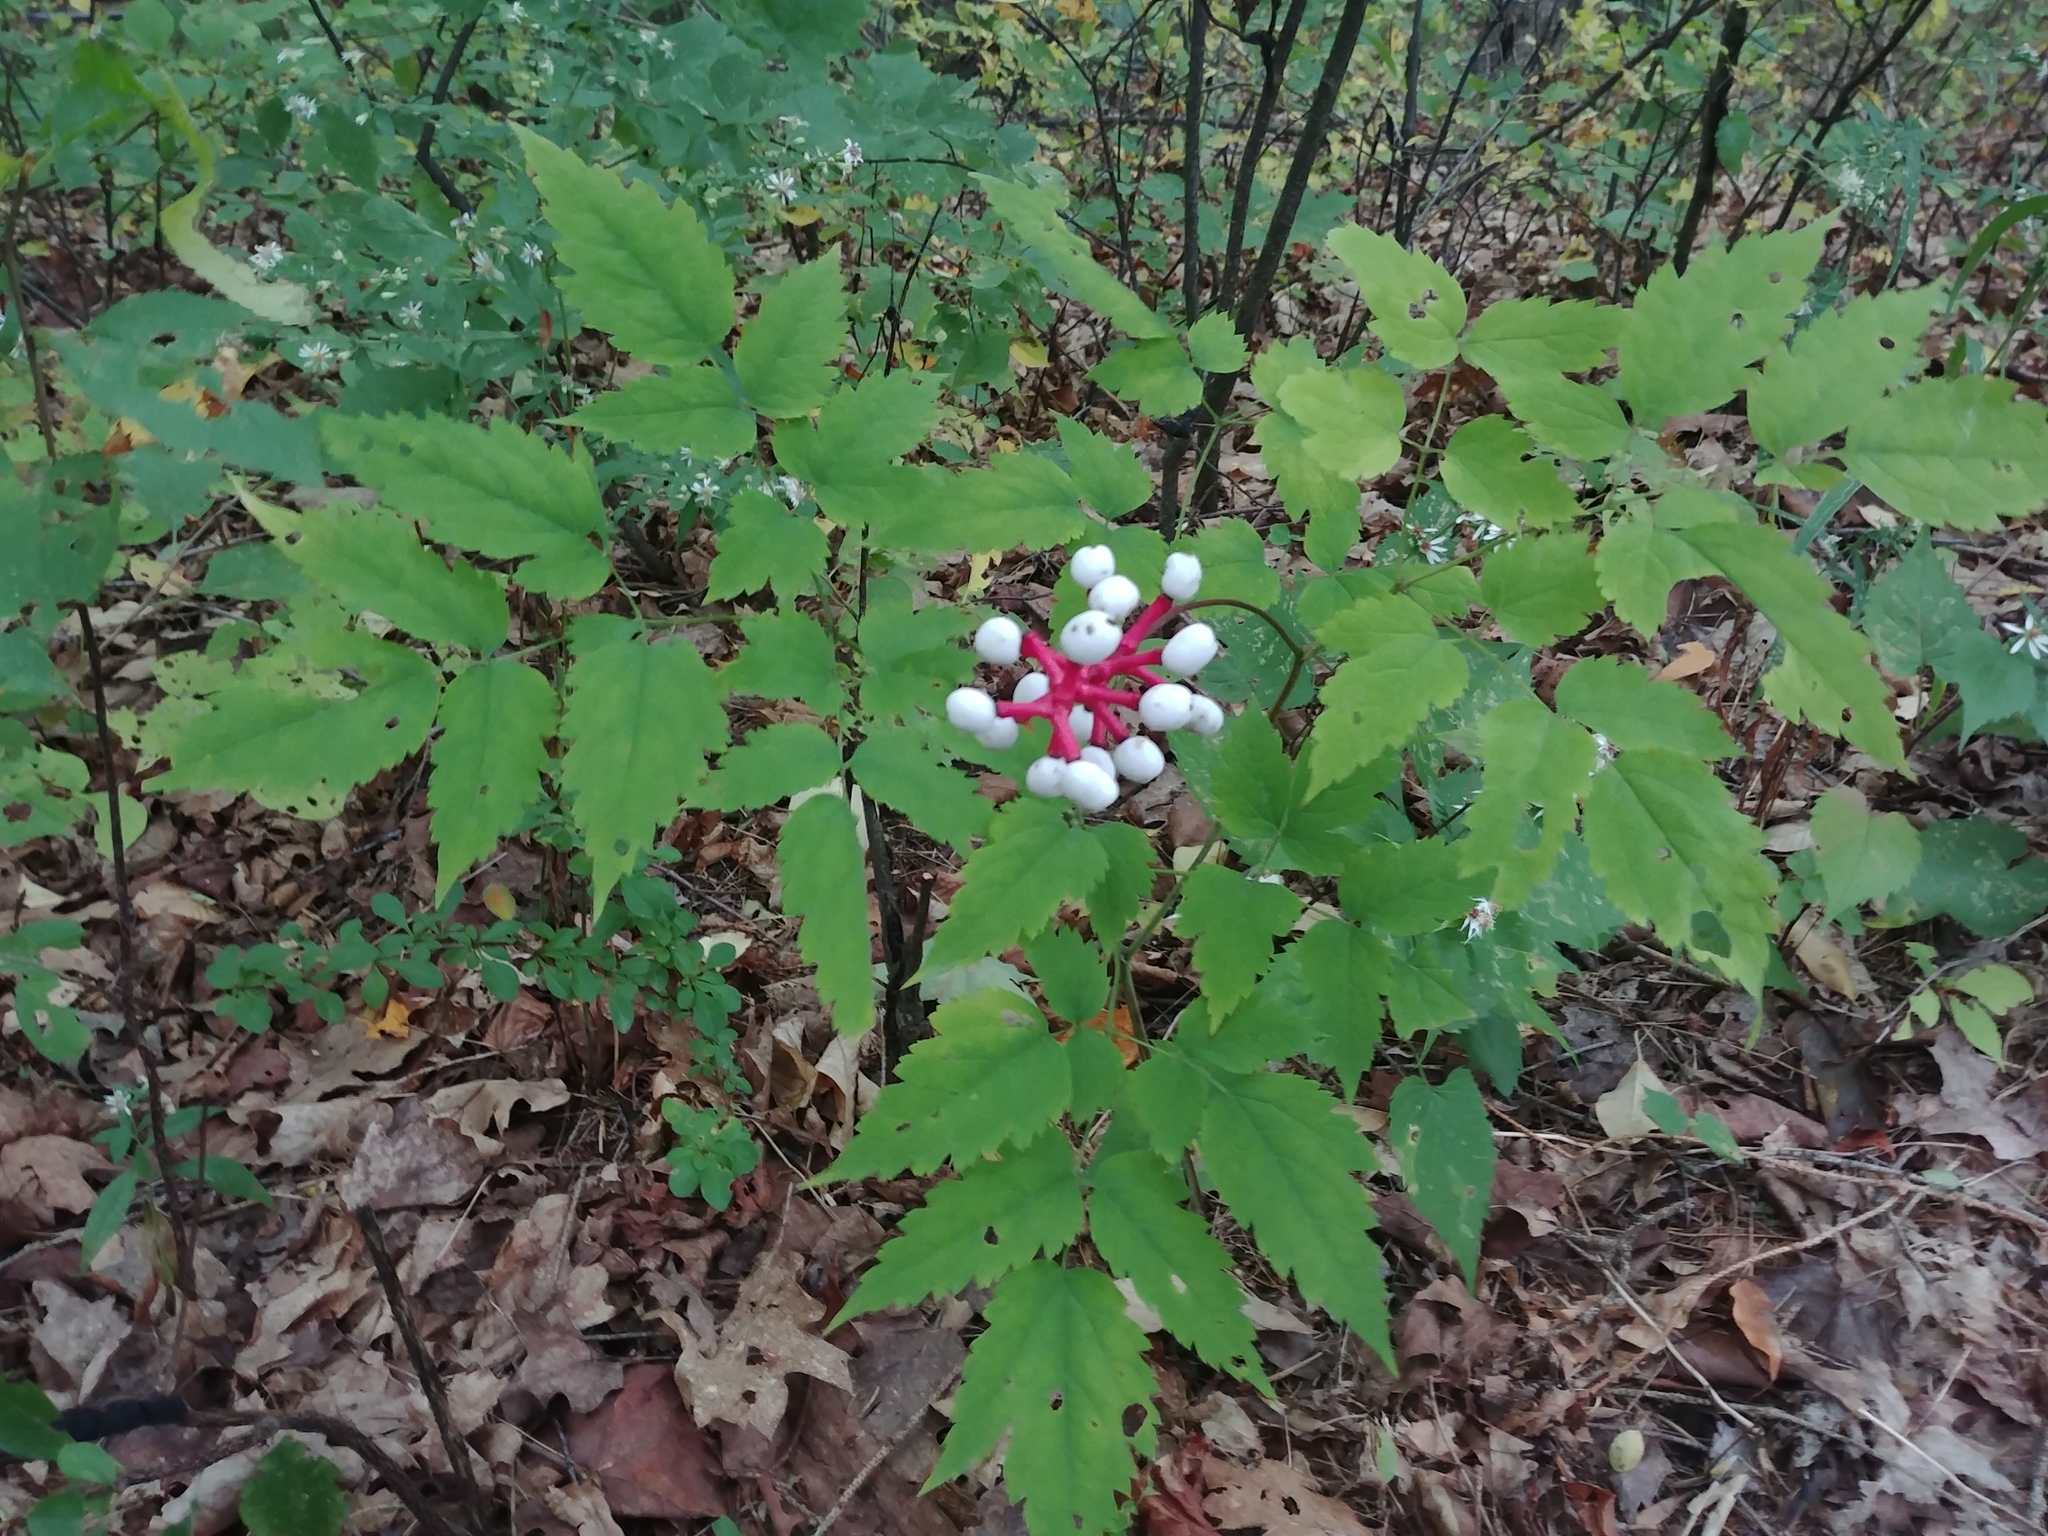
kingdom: Plantae
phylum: Tracheophyta
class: Magnoliopsida
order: Ranunculales
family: Ranunculaceae
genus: Actaea
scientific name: Actaea pachypoda
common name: Doll's-eyes
